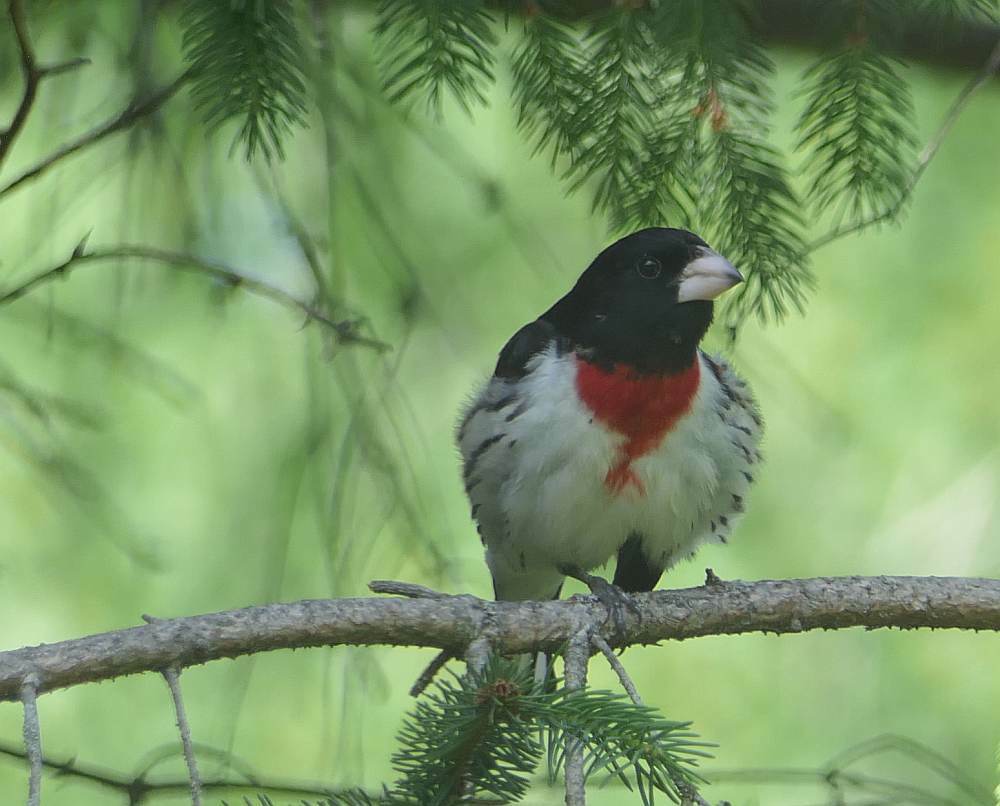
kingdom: Animalia
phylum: Chordata
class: Aves
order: Passeriformes
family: Cardinalidae
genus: Pheucticus
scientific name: Pheucticus ludovicianus
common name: Rose-breasted grosbeak
